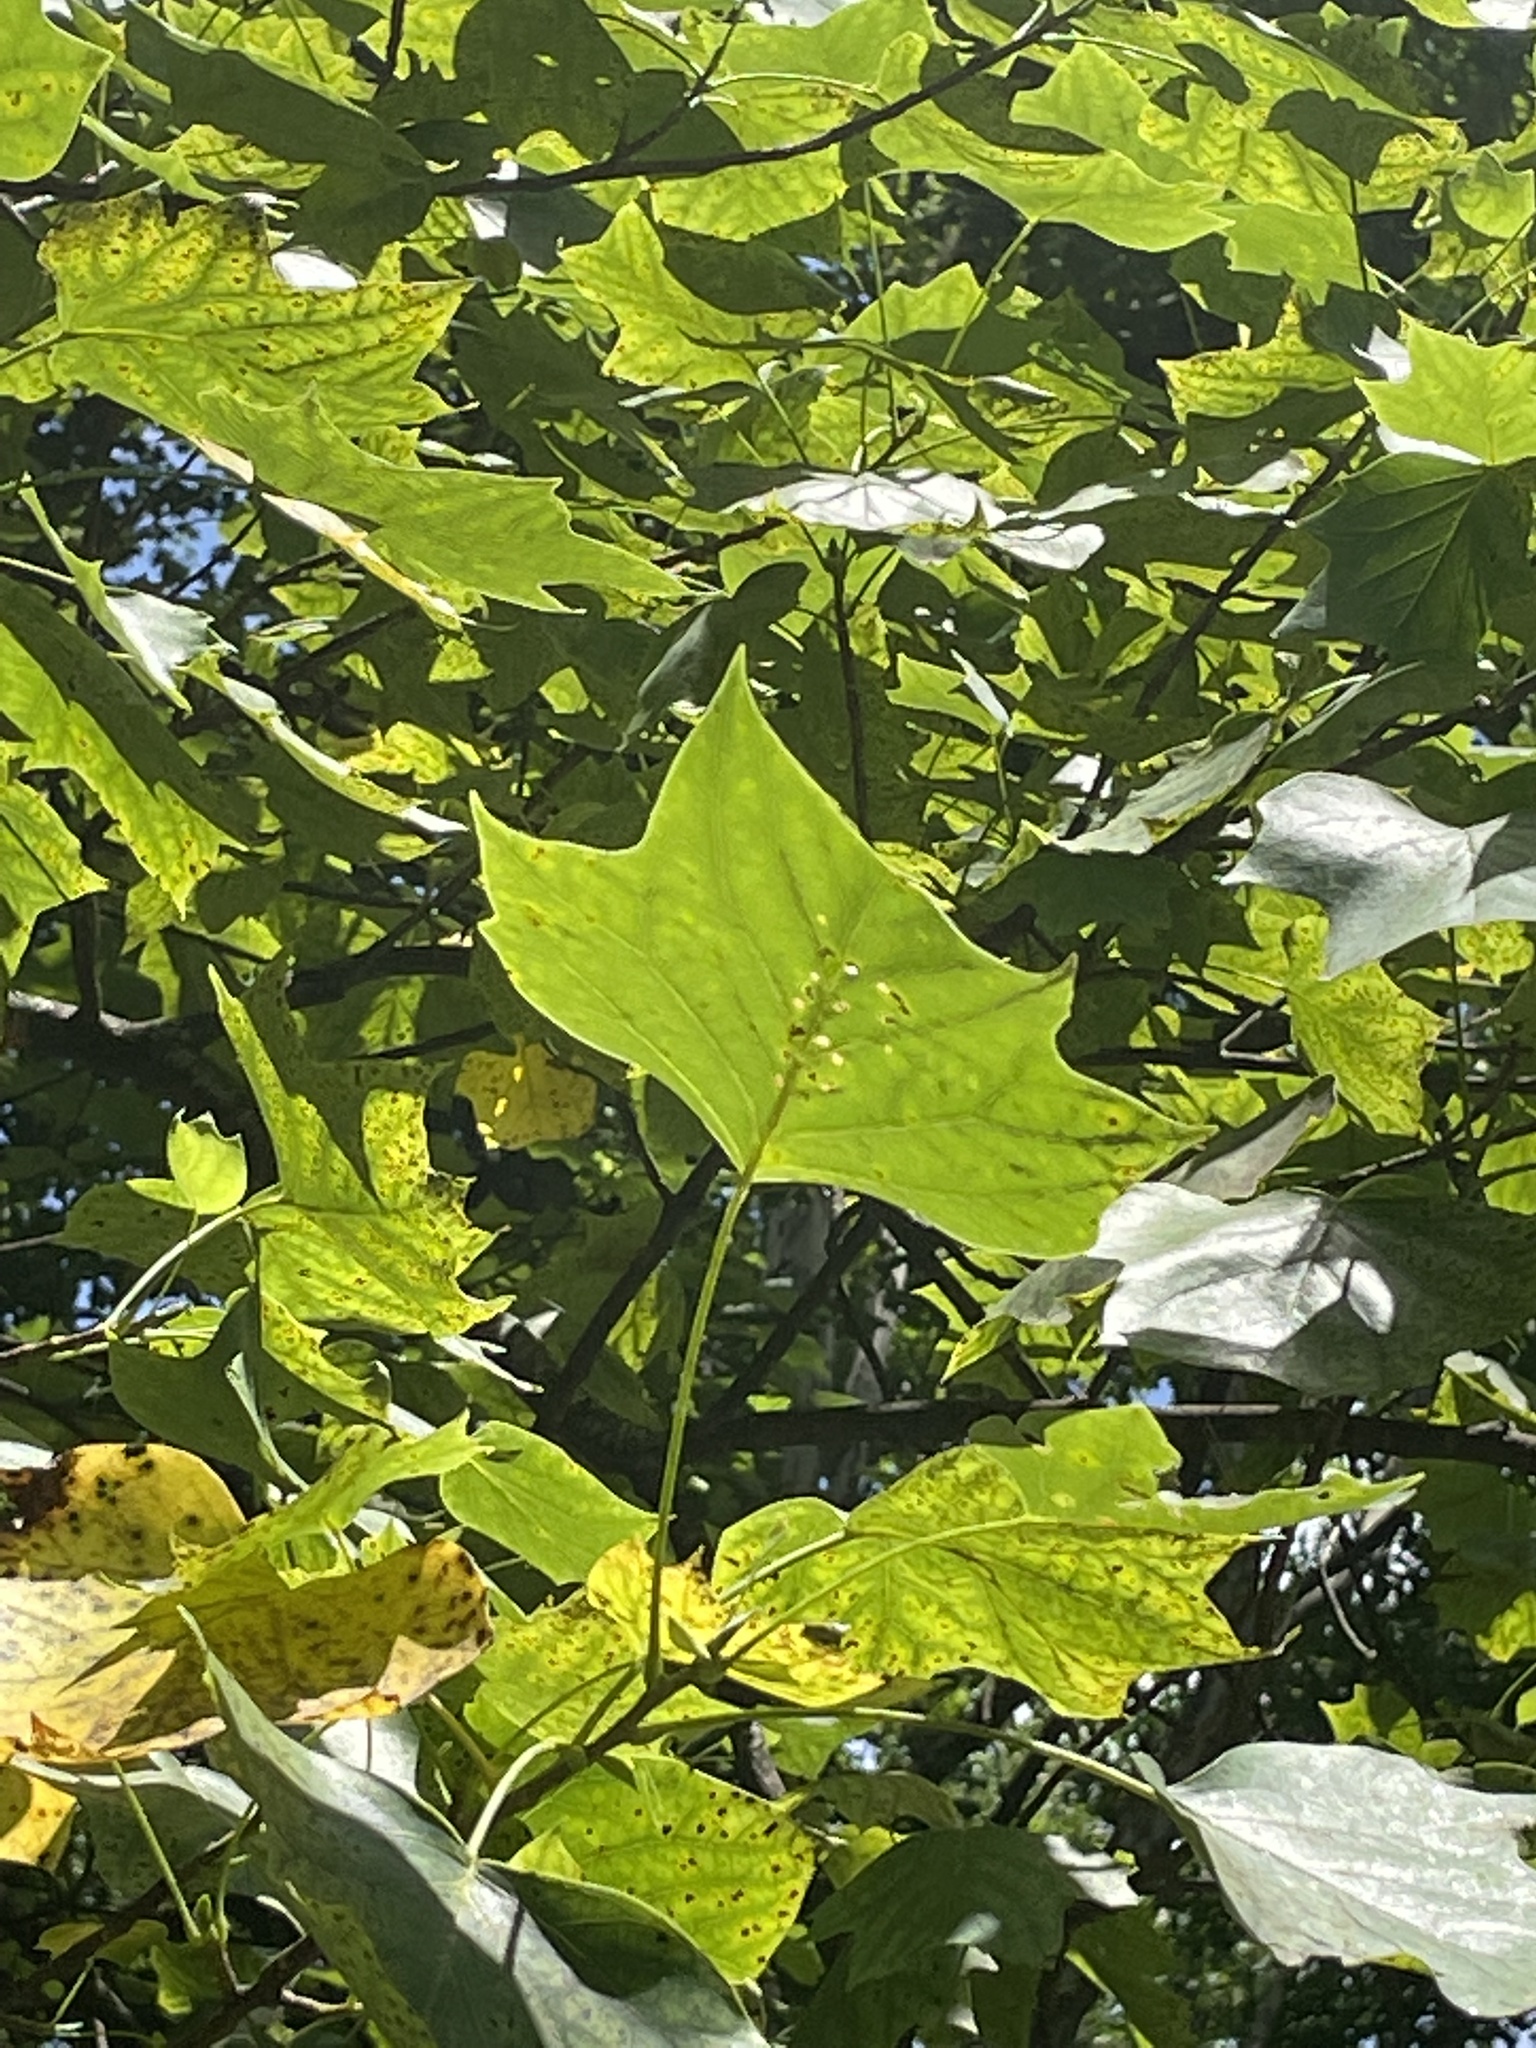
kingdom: Plantae
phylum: Tracheophyta
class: Magnoliopsida
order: Magnoliales
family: Magnoliaceae
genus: Liriodendron
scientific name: Liriodendron tulipifera
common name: Tulip tree
